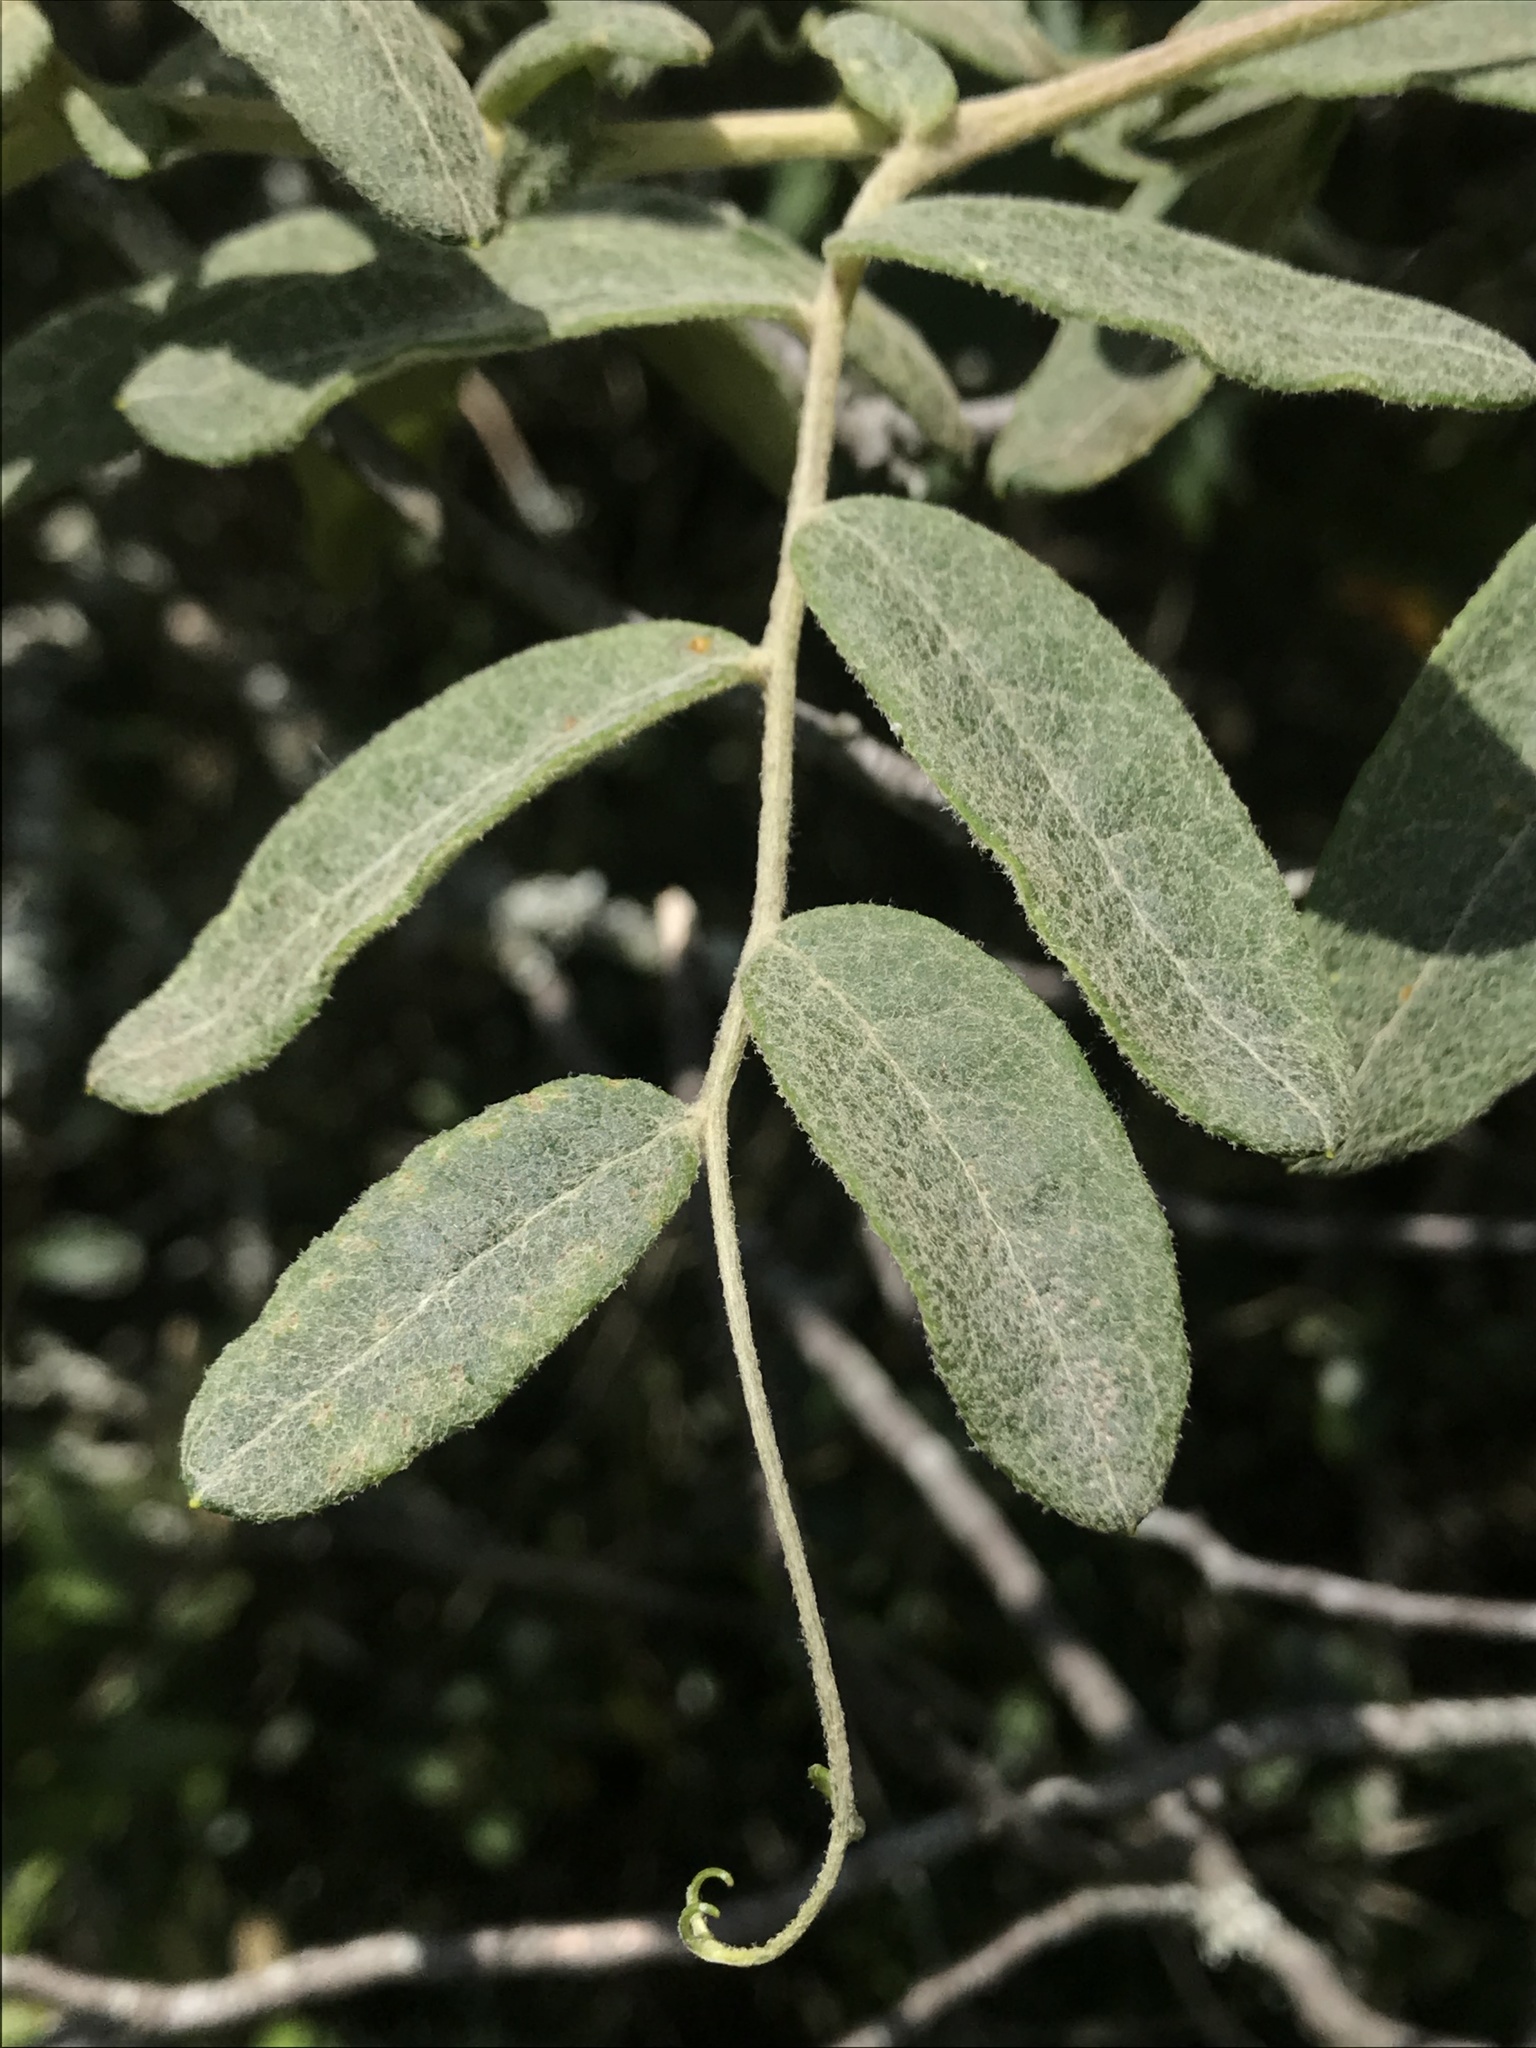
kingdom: Plantae
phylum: Tracheophyta
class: Magnoliopsida
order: Asterales
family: Asteraceae
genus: Mutisia
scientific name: Mutisia clematis
